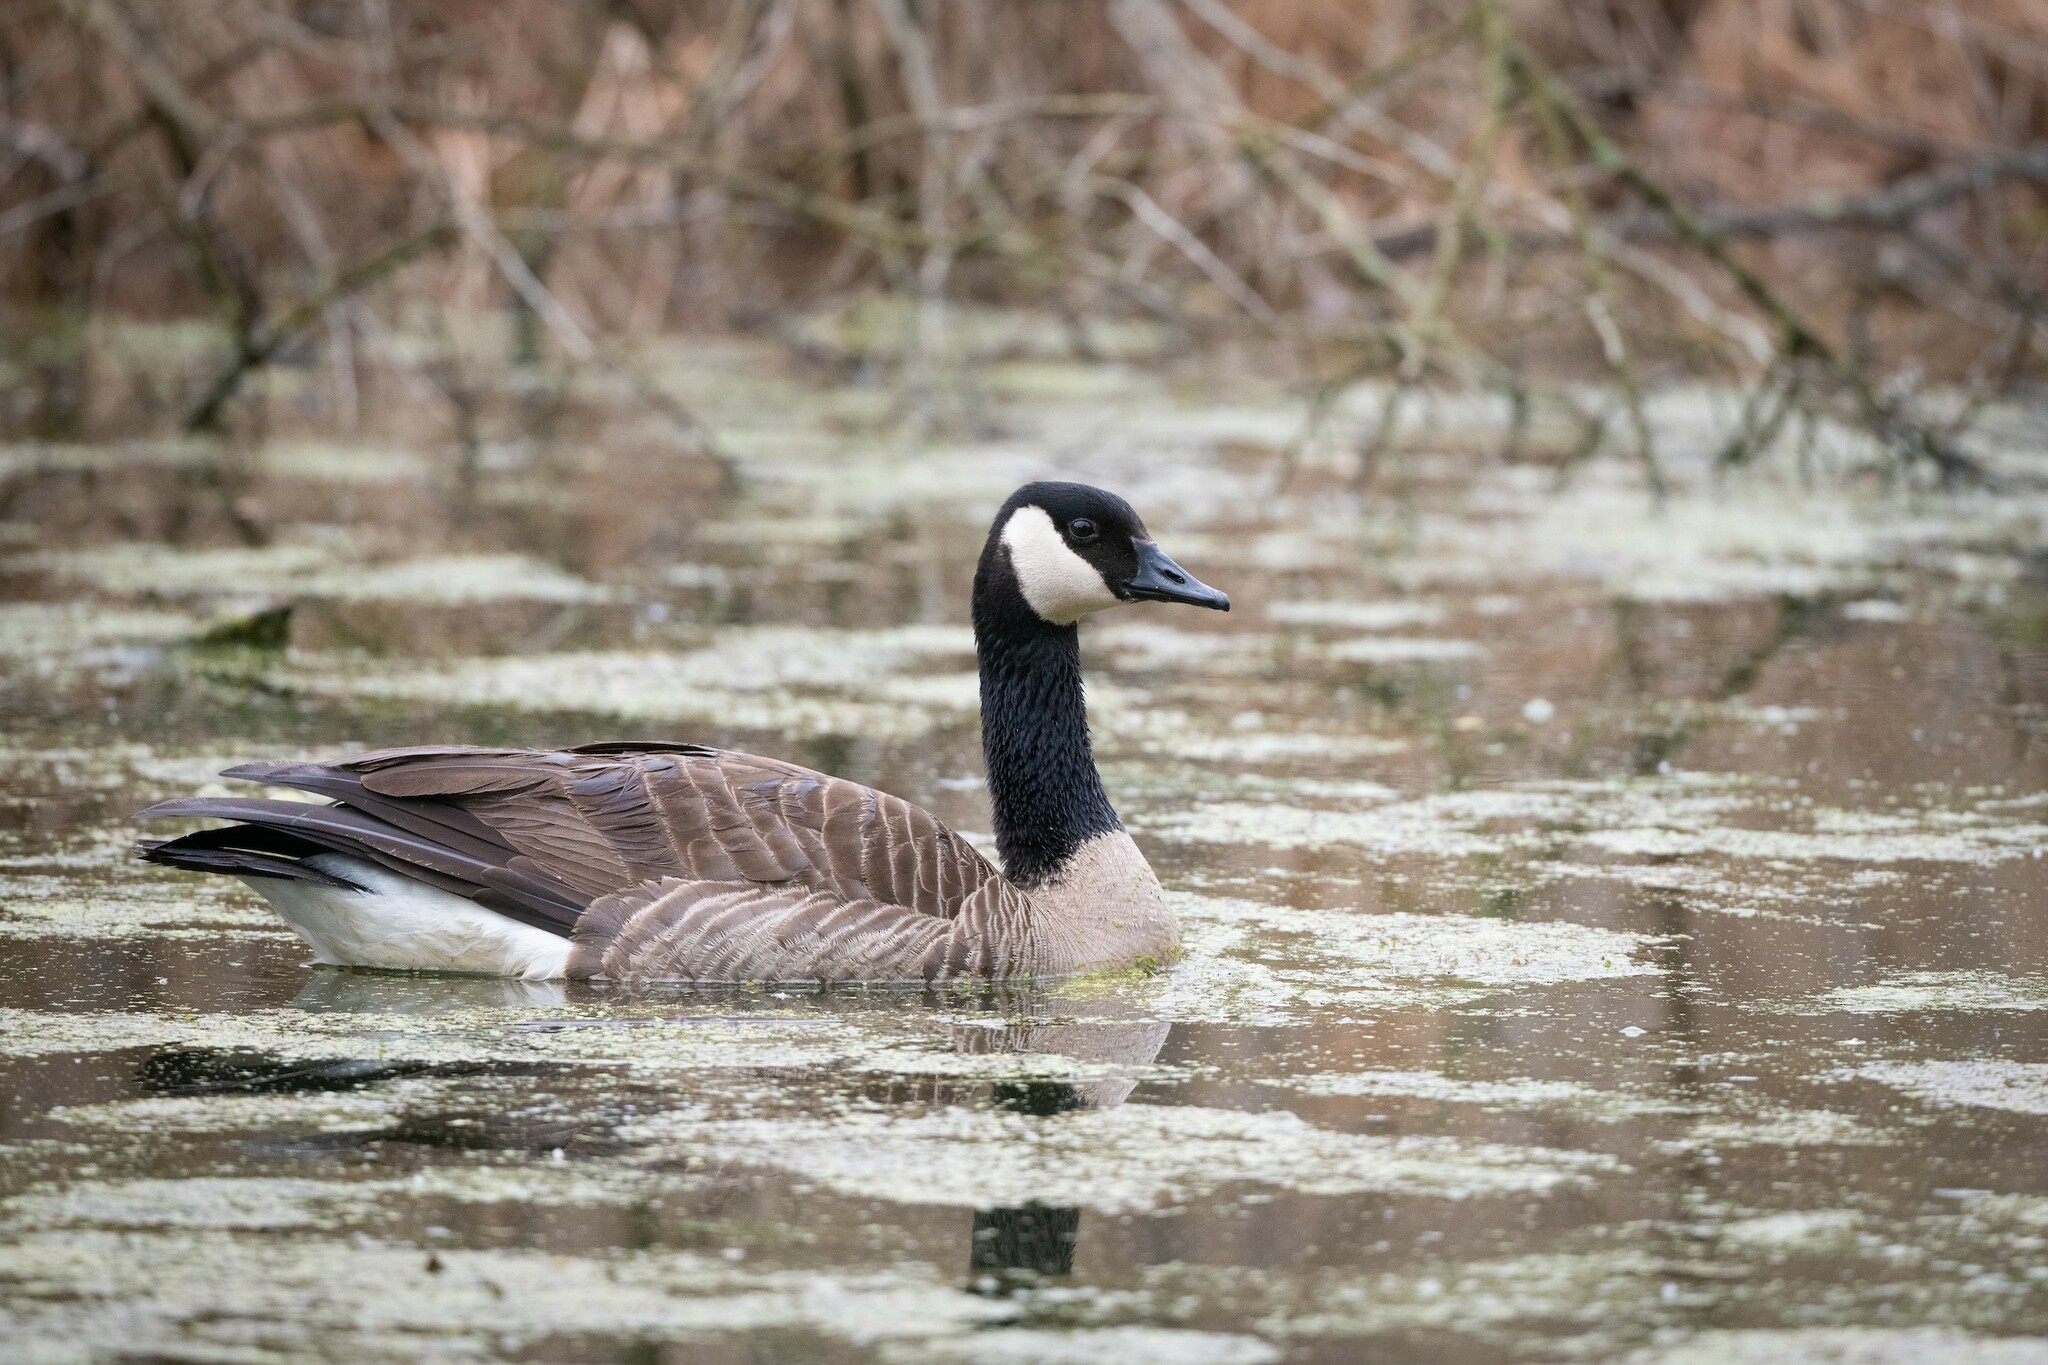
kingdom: Animalia
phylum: Chordata
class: Aves
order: Anseriformes
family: Anatidae
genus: Branta
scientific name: Branta canadensis
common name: Canada goose
